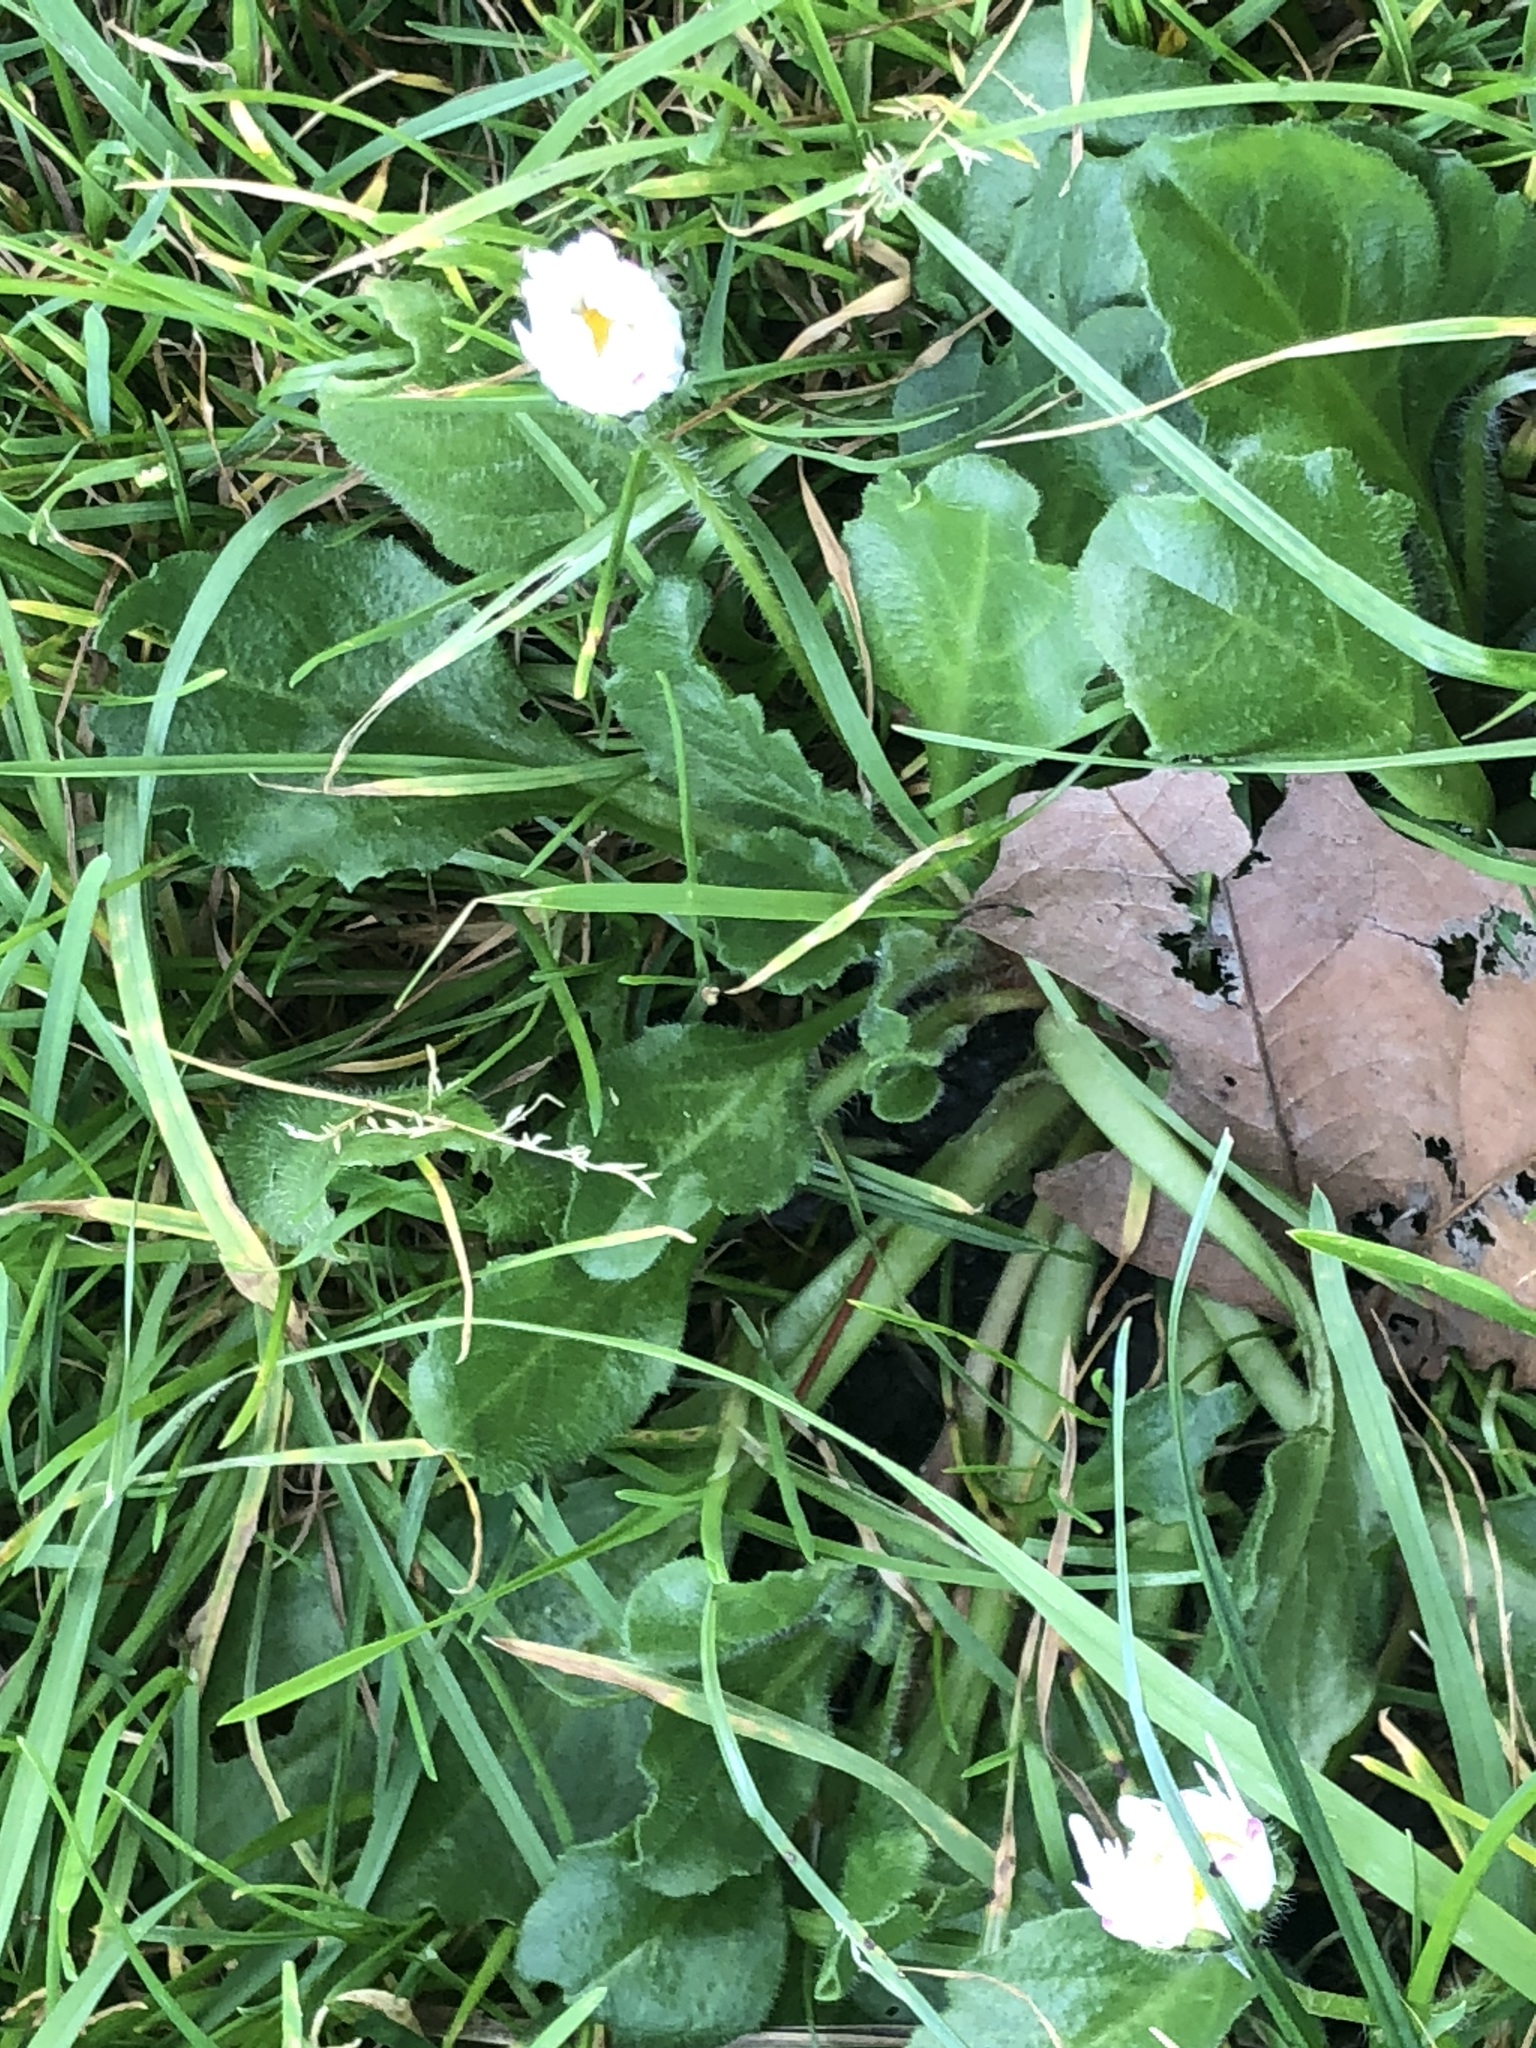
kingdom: Plantae
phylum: Tracheophyta
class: Magnoliopsida
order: Asterales
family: Asteraceae
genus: Bellis
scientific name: Bellis perennis
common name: Lawndaisy
